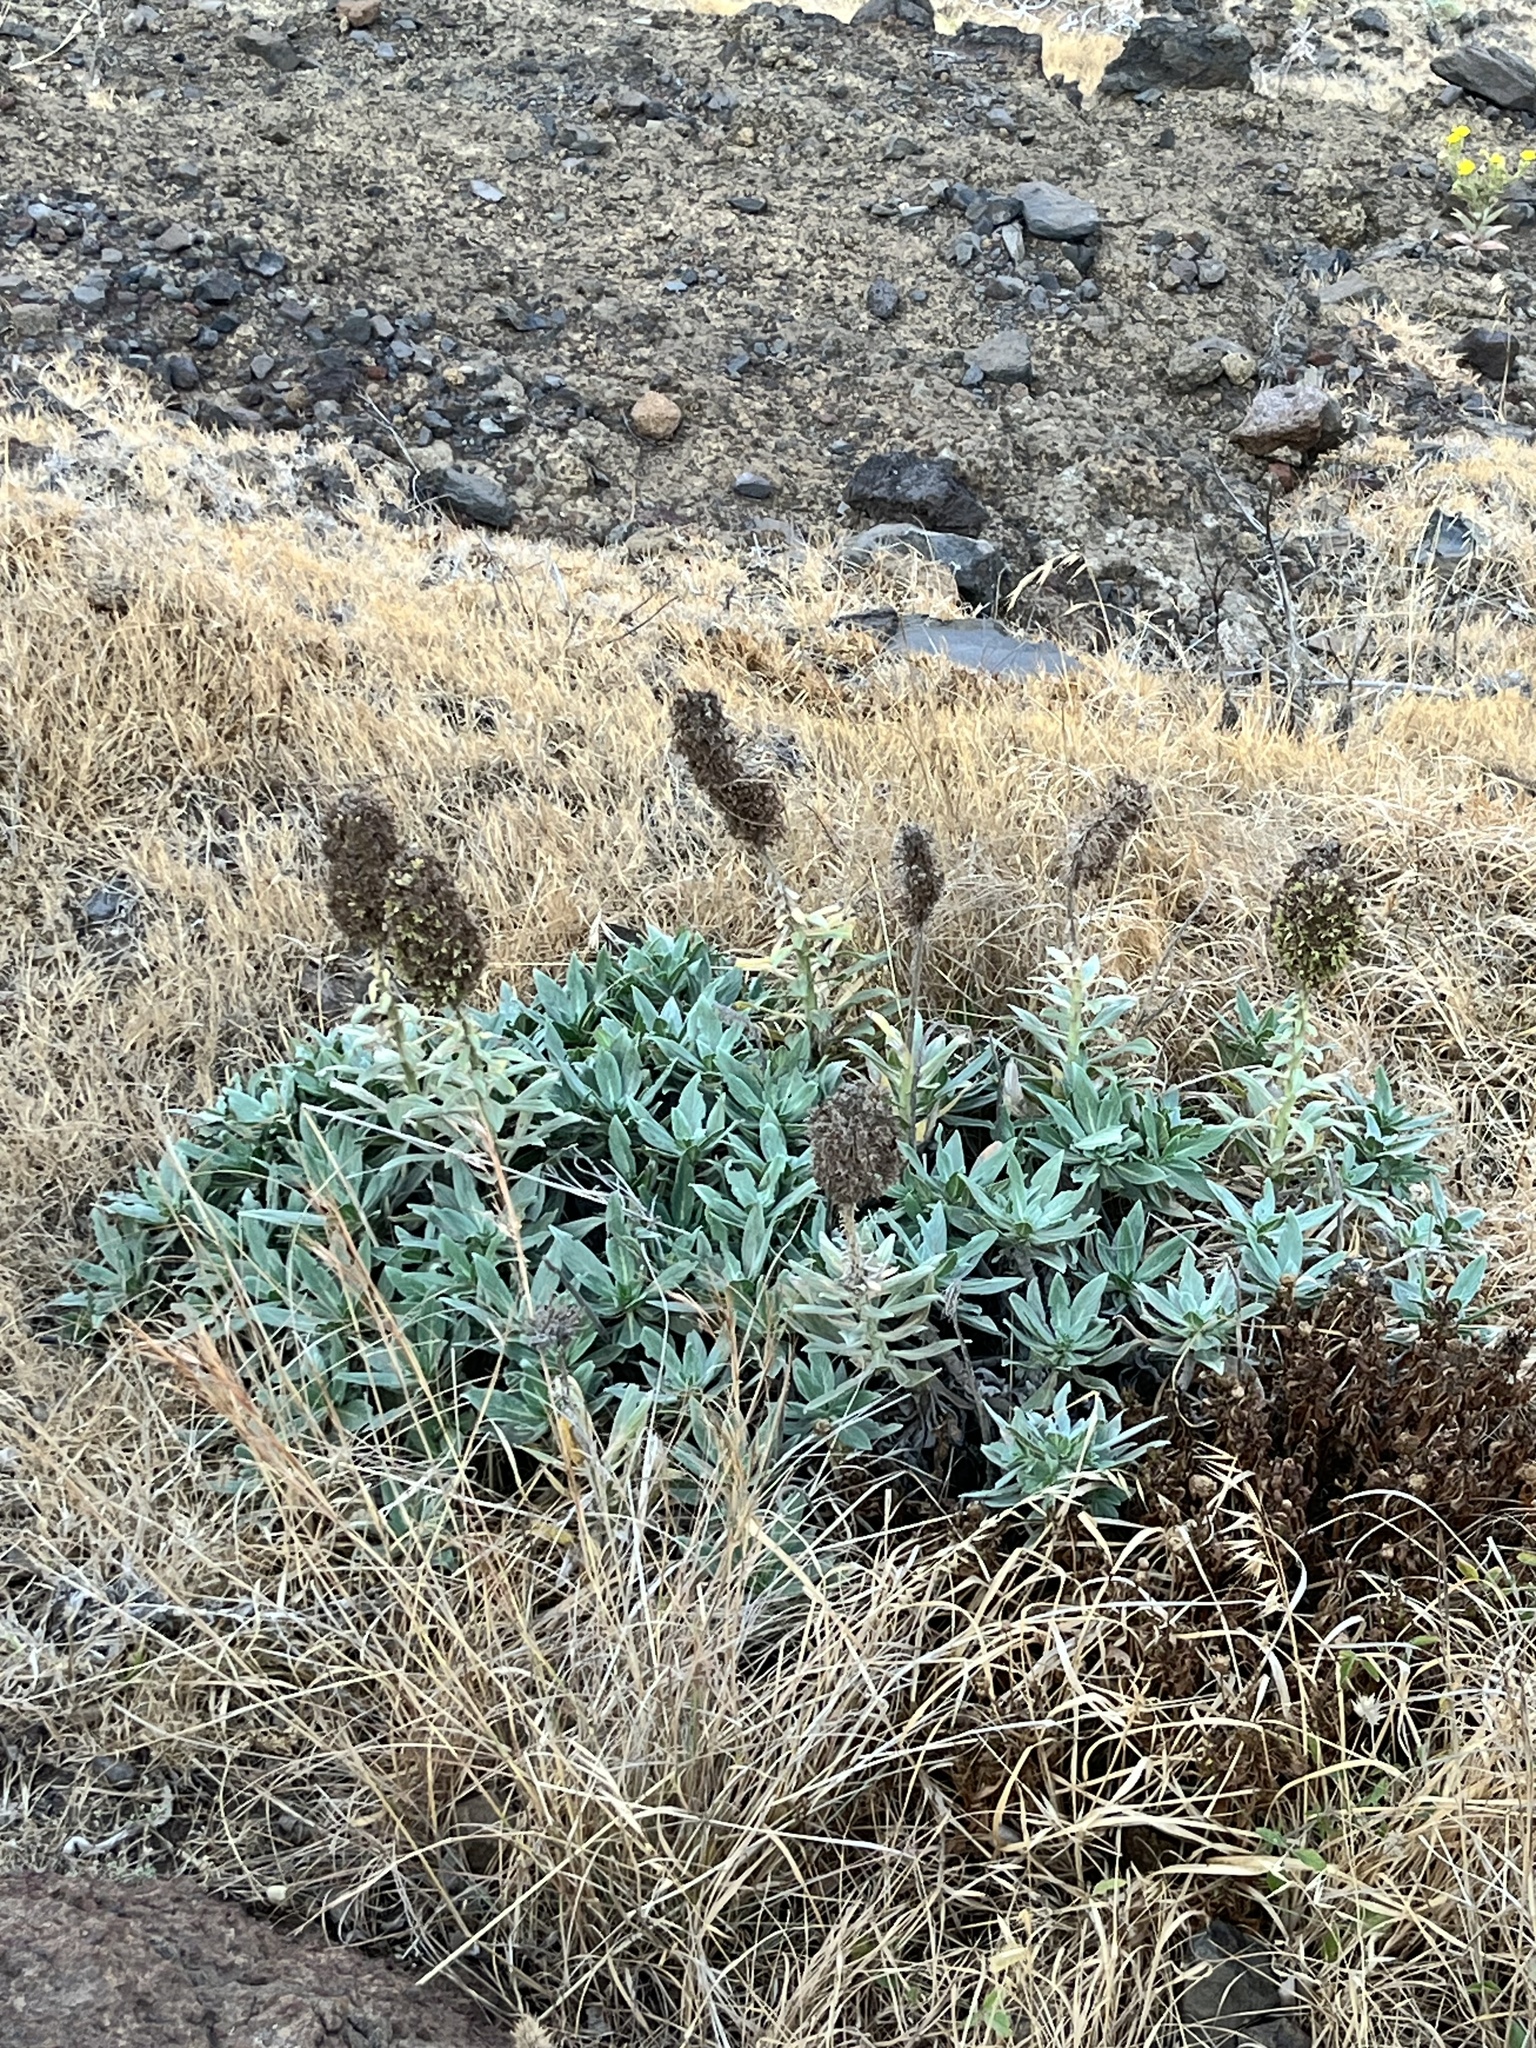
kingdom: Plantae
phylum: Tracheophyta
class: Magnoliopsida
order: Boraginales
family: Boraginaceae
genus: Echium
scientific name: Echium nervosum
